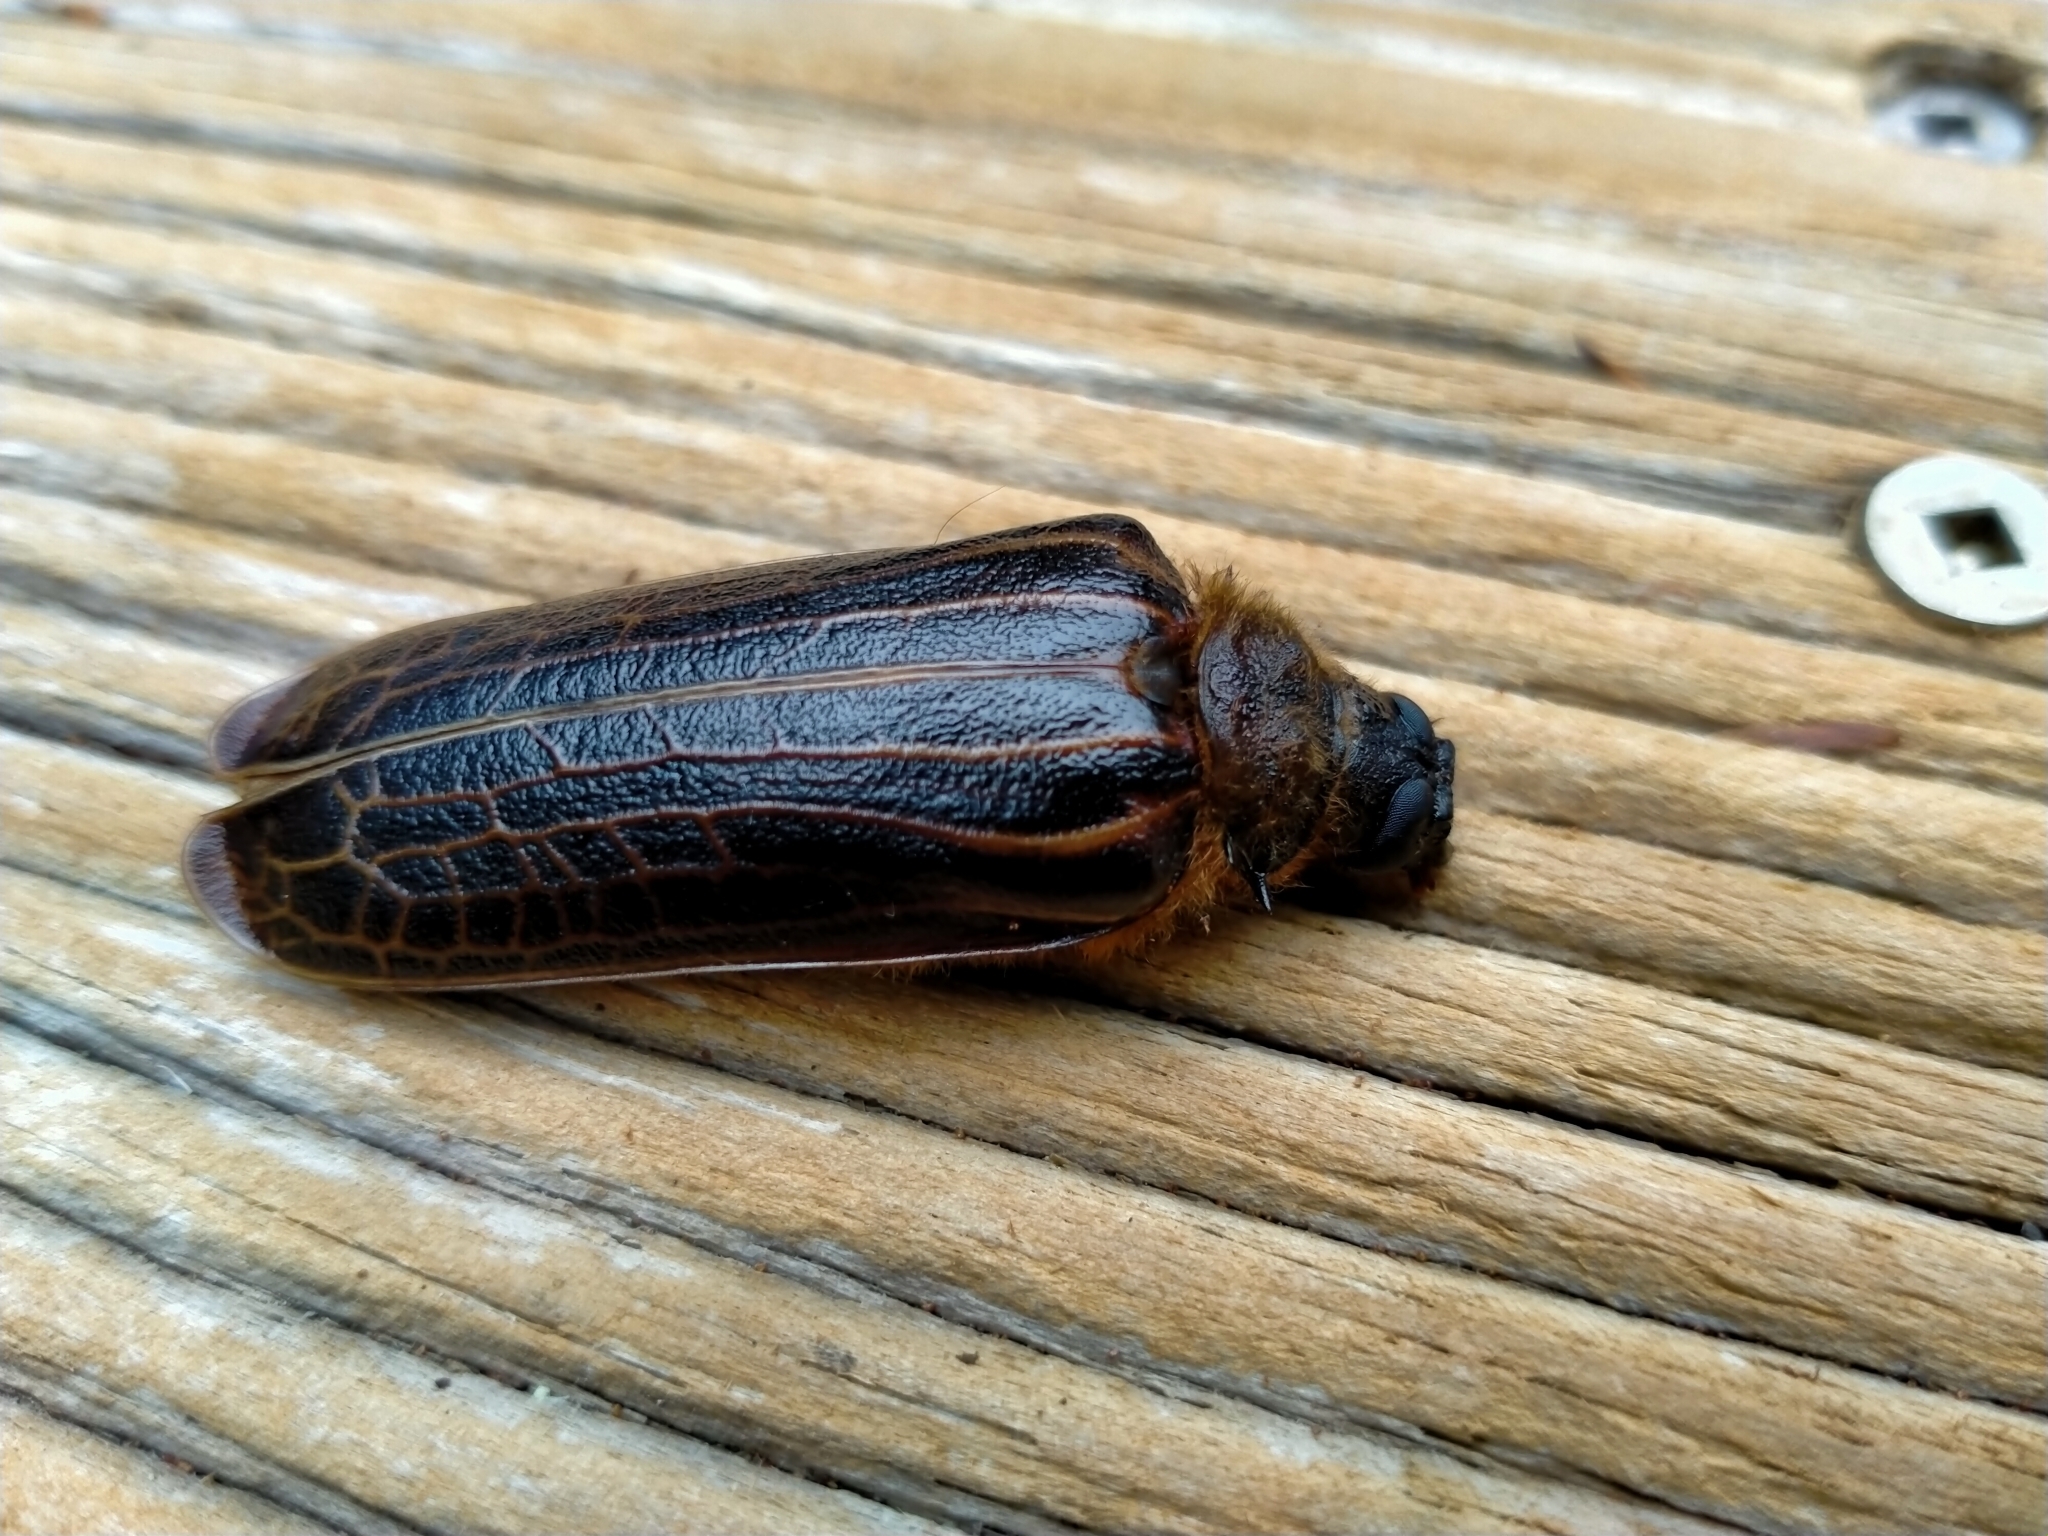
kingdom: Animalia
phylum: Arthropoda
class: Insecta
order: Coleoptera
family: Cerambycidae
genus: Prionoplus
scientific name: Prionoplus reticularis
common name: Huhu beetle
